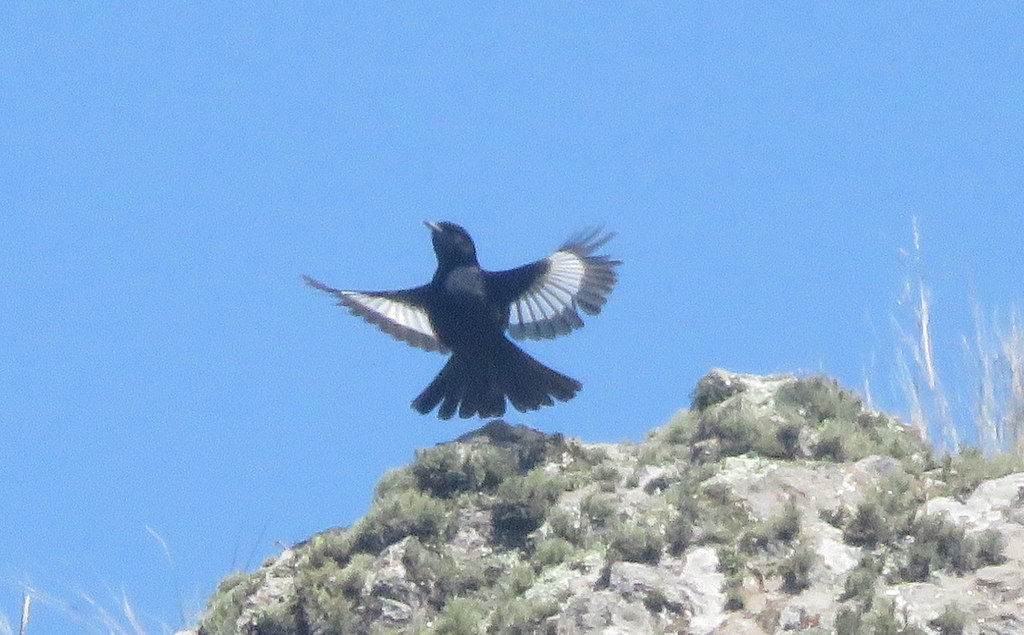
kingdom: Animalia
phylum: Chordata
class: Aves
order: Passeriformes
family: Tyrannidae
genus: Knipolegus
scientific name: Knipolegus aterrimus
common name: White-winged black tyrant
